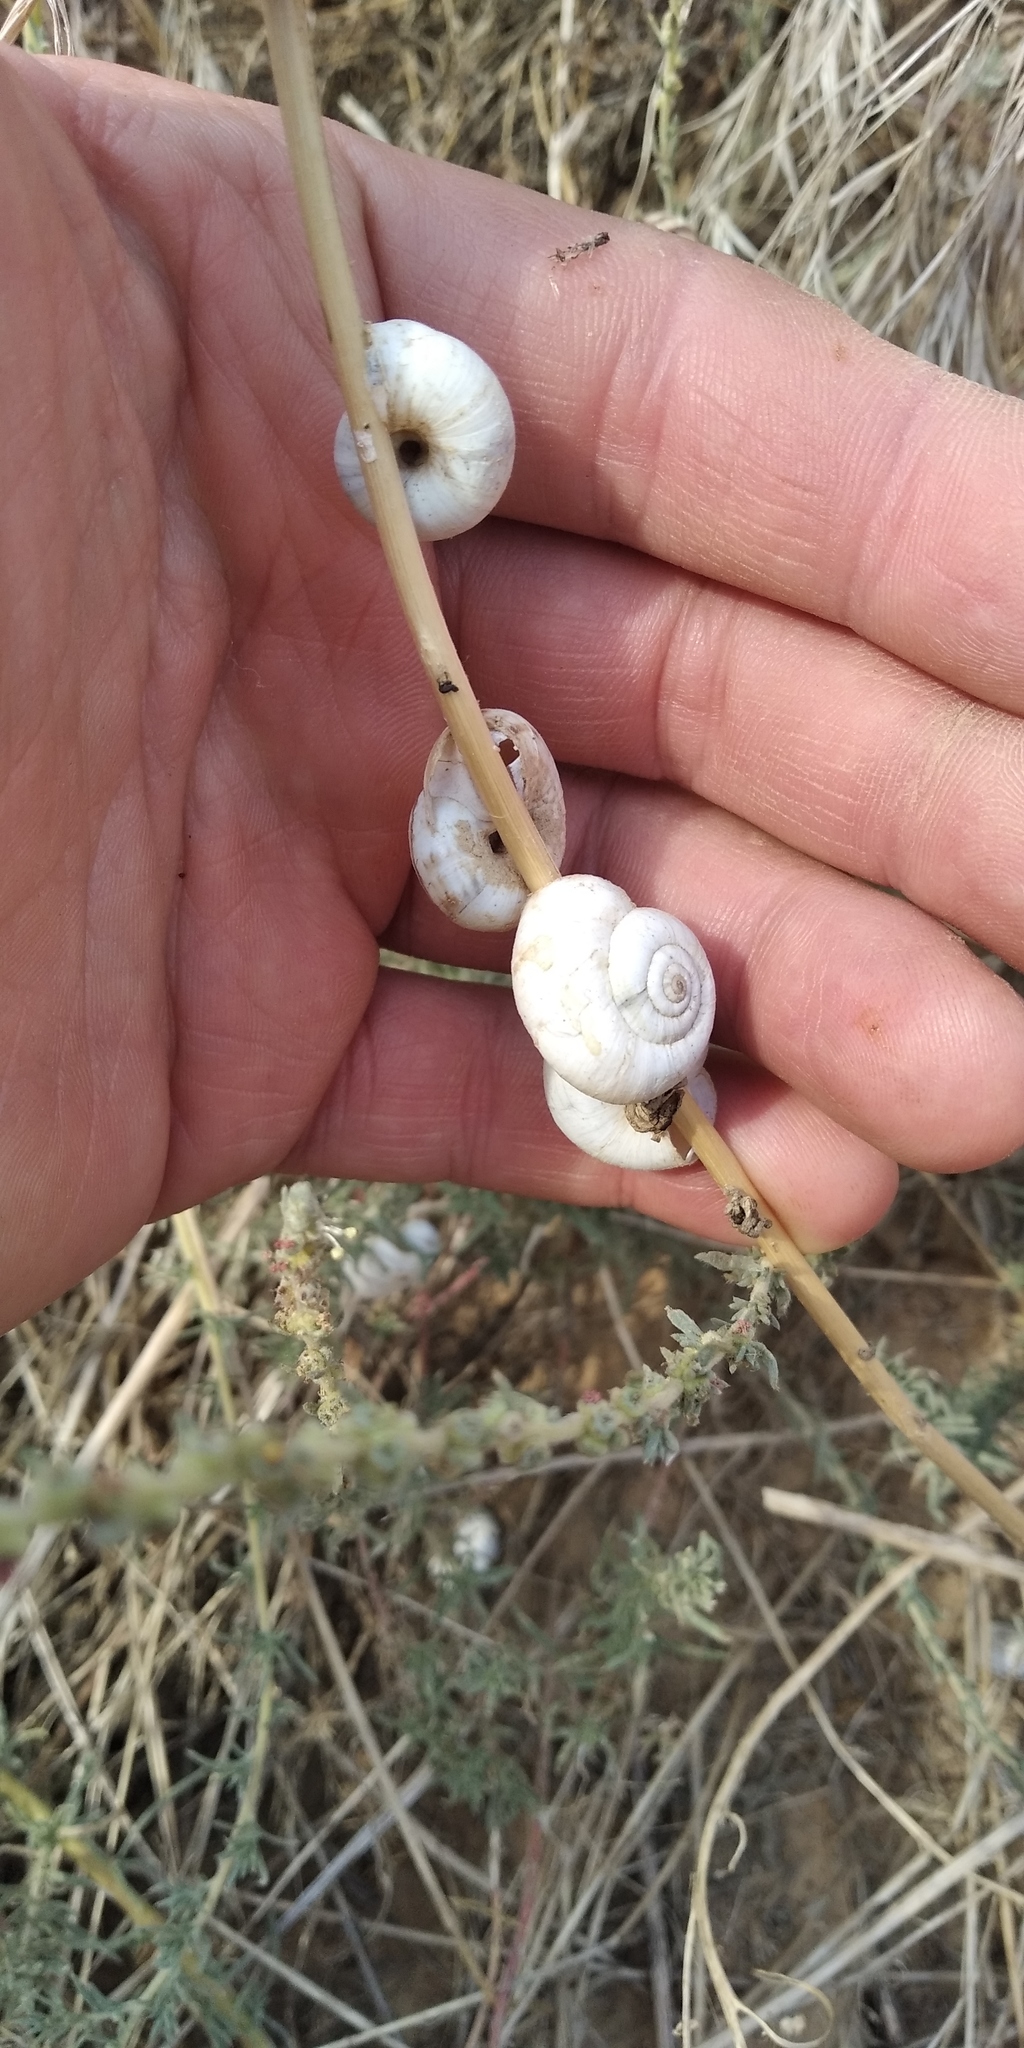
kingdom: Animalia
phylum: Mollusca
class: Gastropoda
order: Stylommatophora
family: Geomitridae
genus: Xeropicta
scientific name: Xeropicta derbentina
